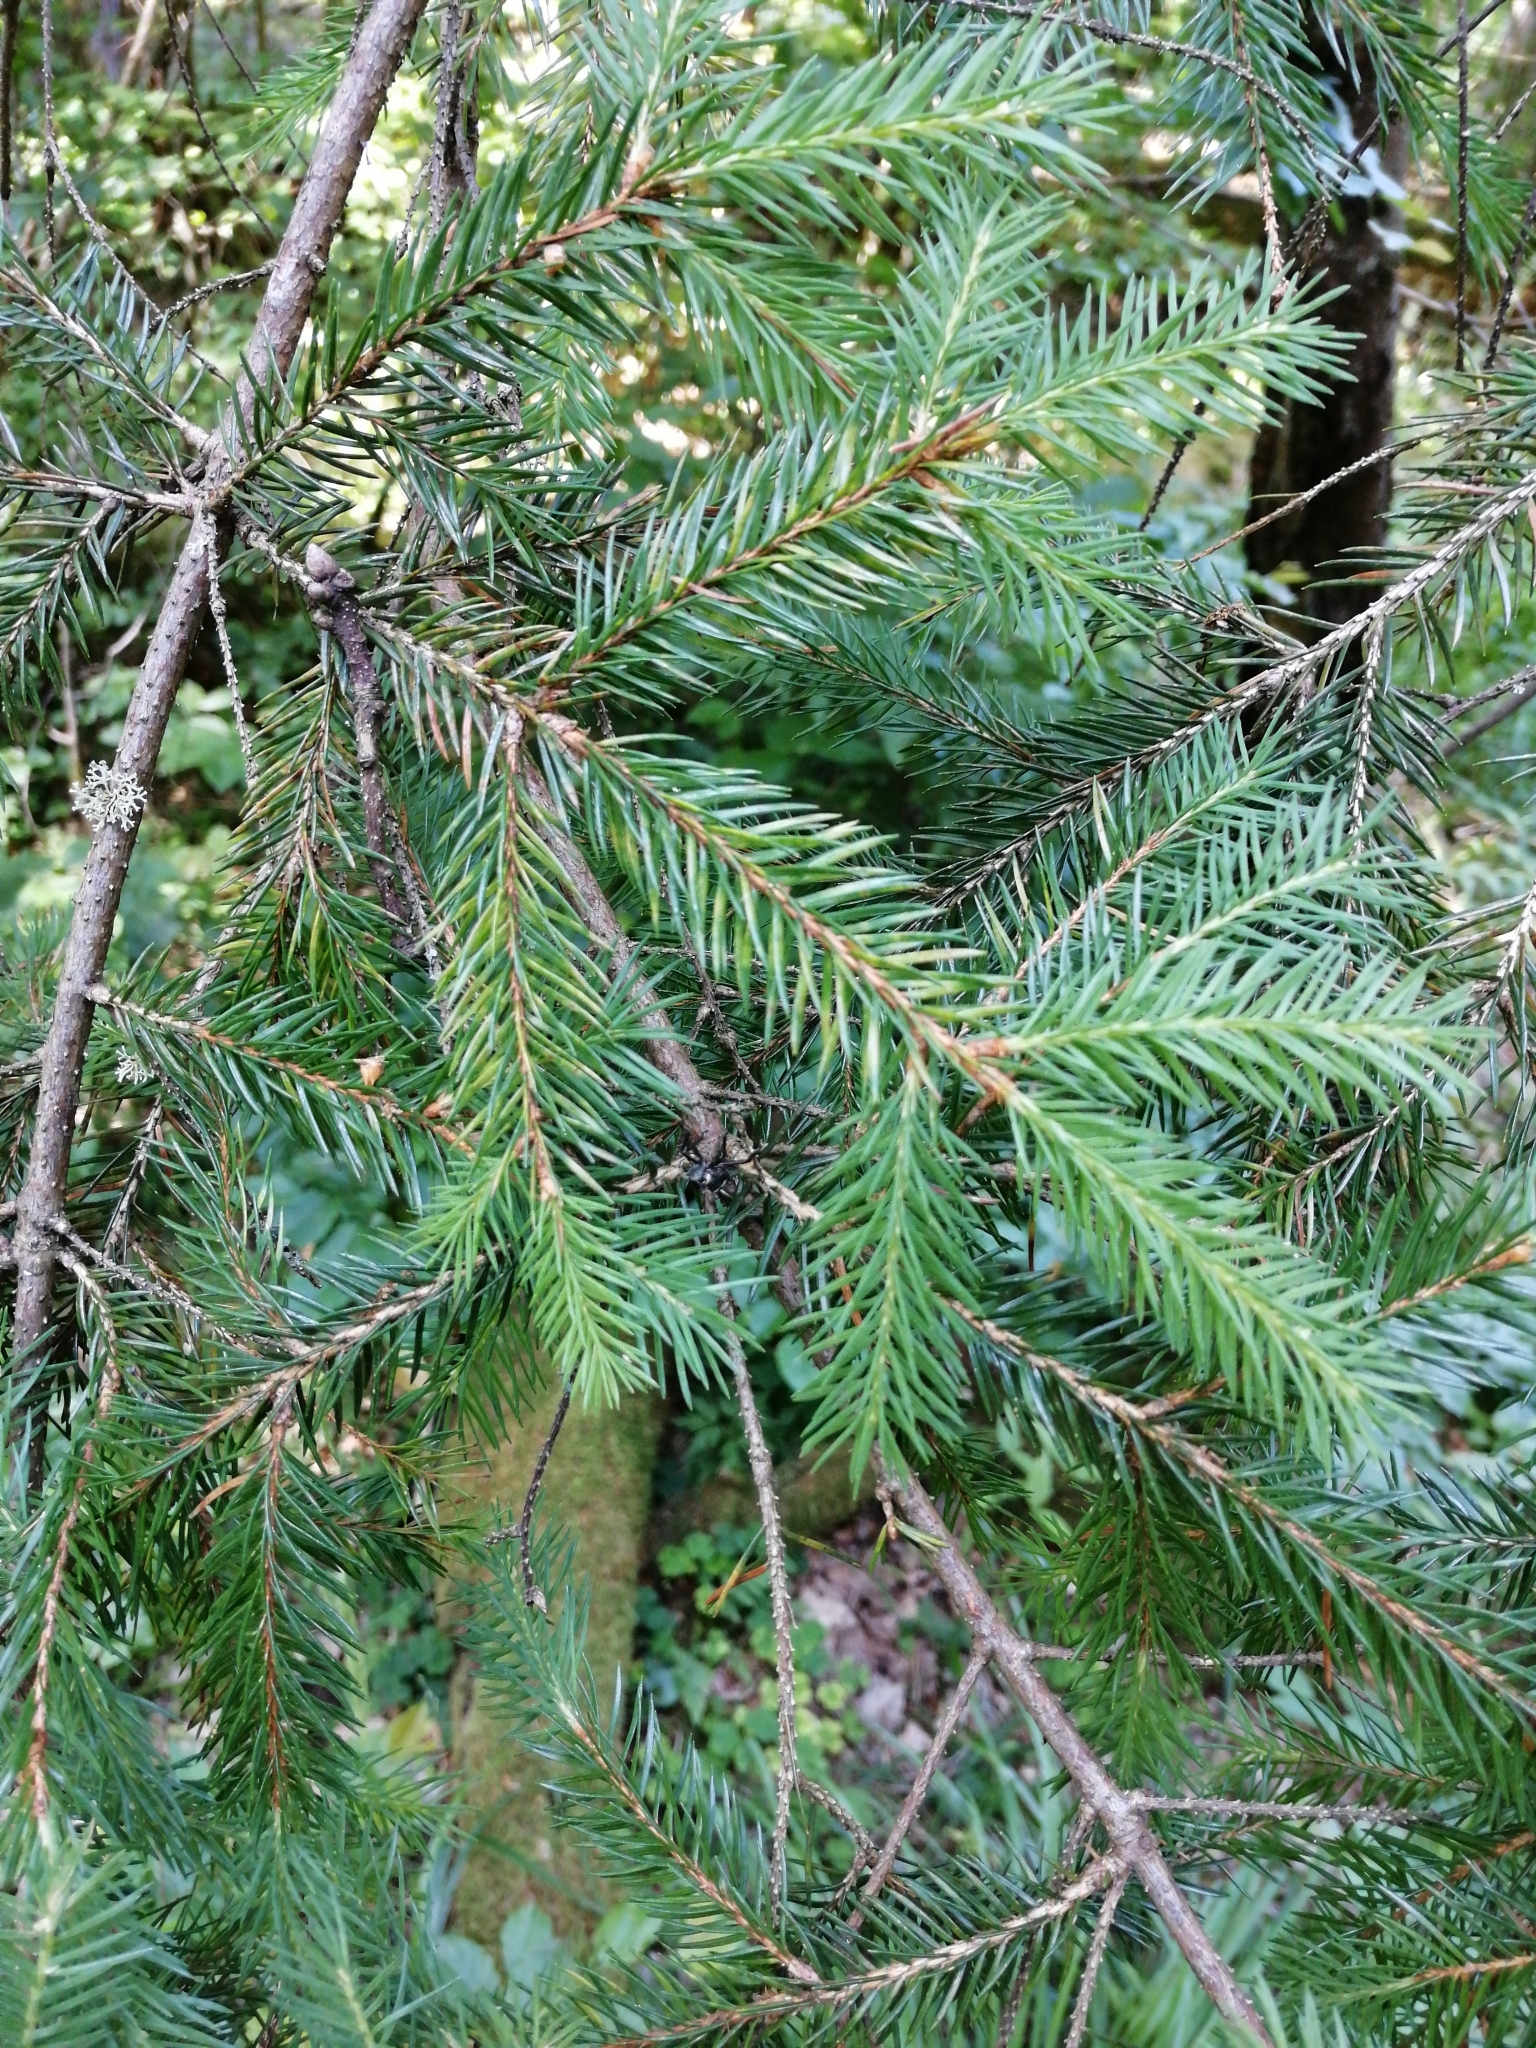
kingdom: Plantae
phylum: Tracheophyta
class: Pinopsida
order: Pinales
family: Pinaceae
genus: Picea
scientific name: Picea abies
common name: Norway spruce
